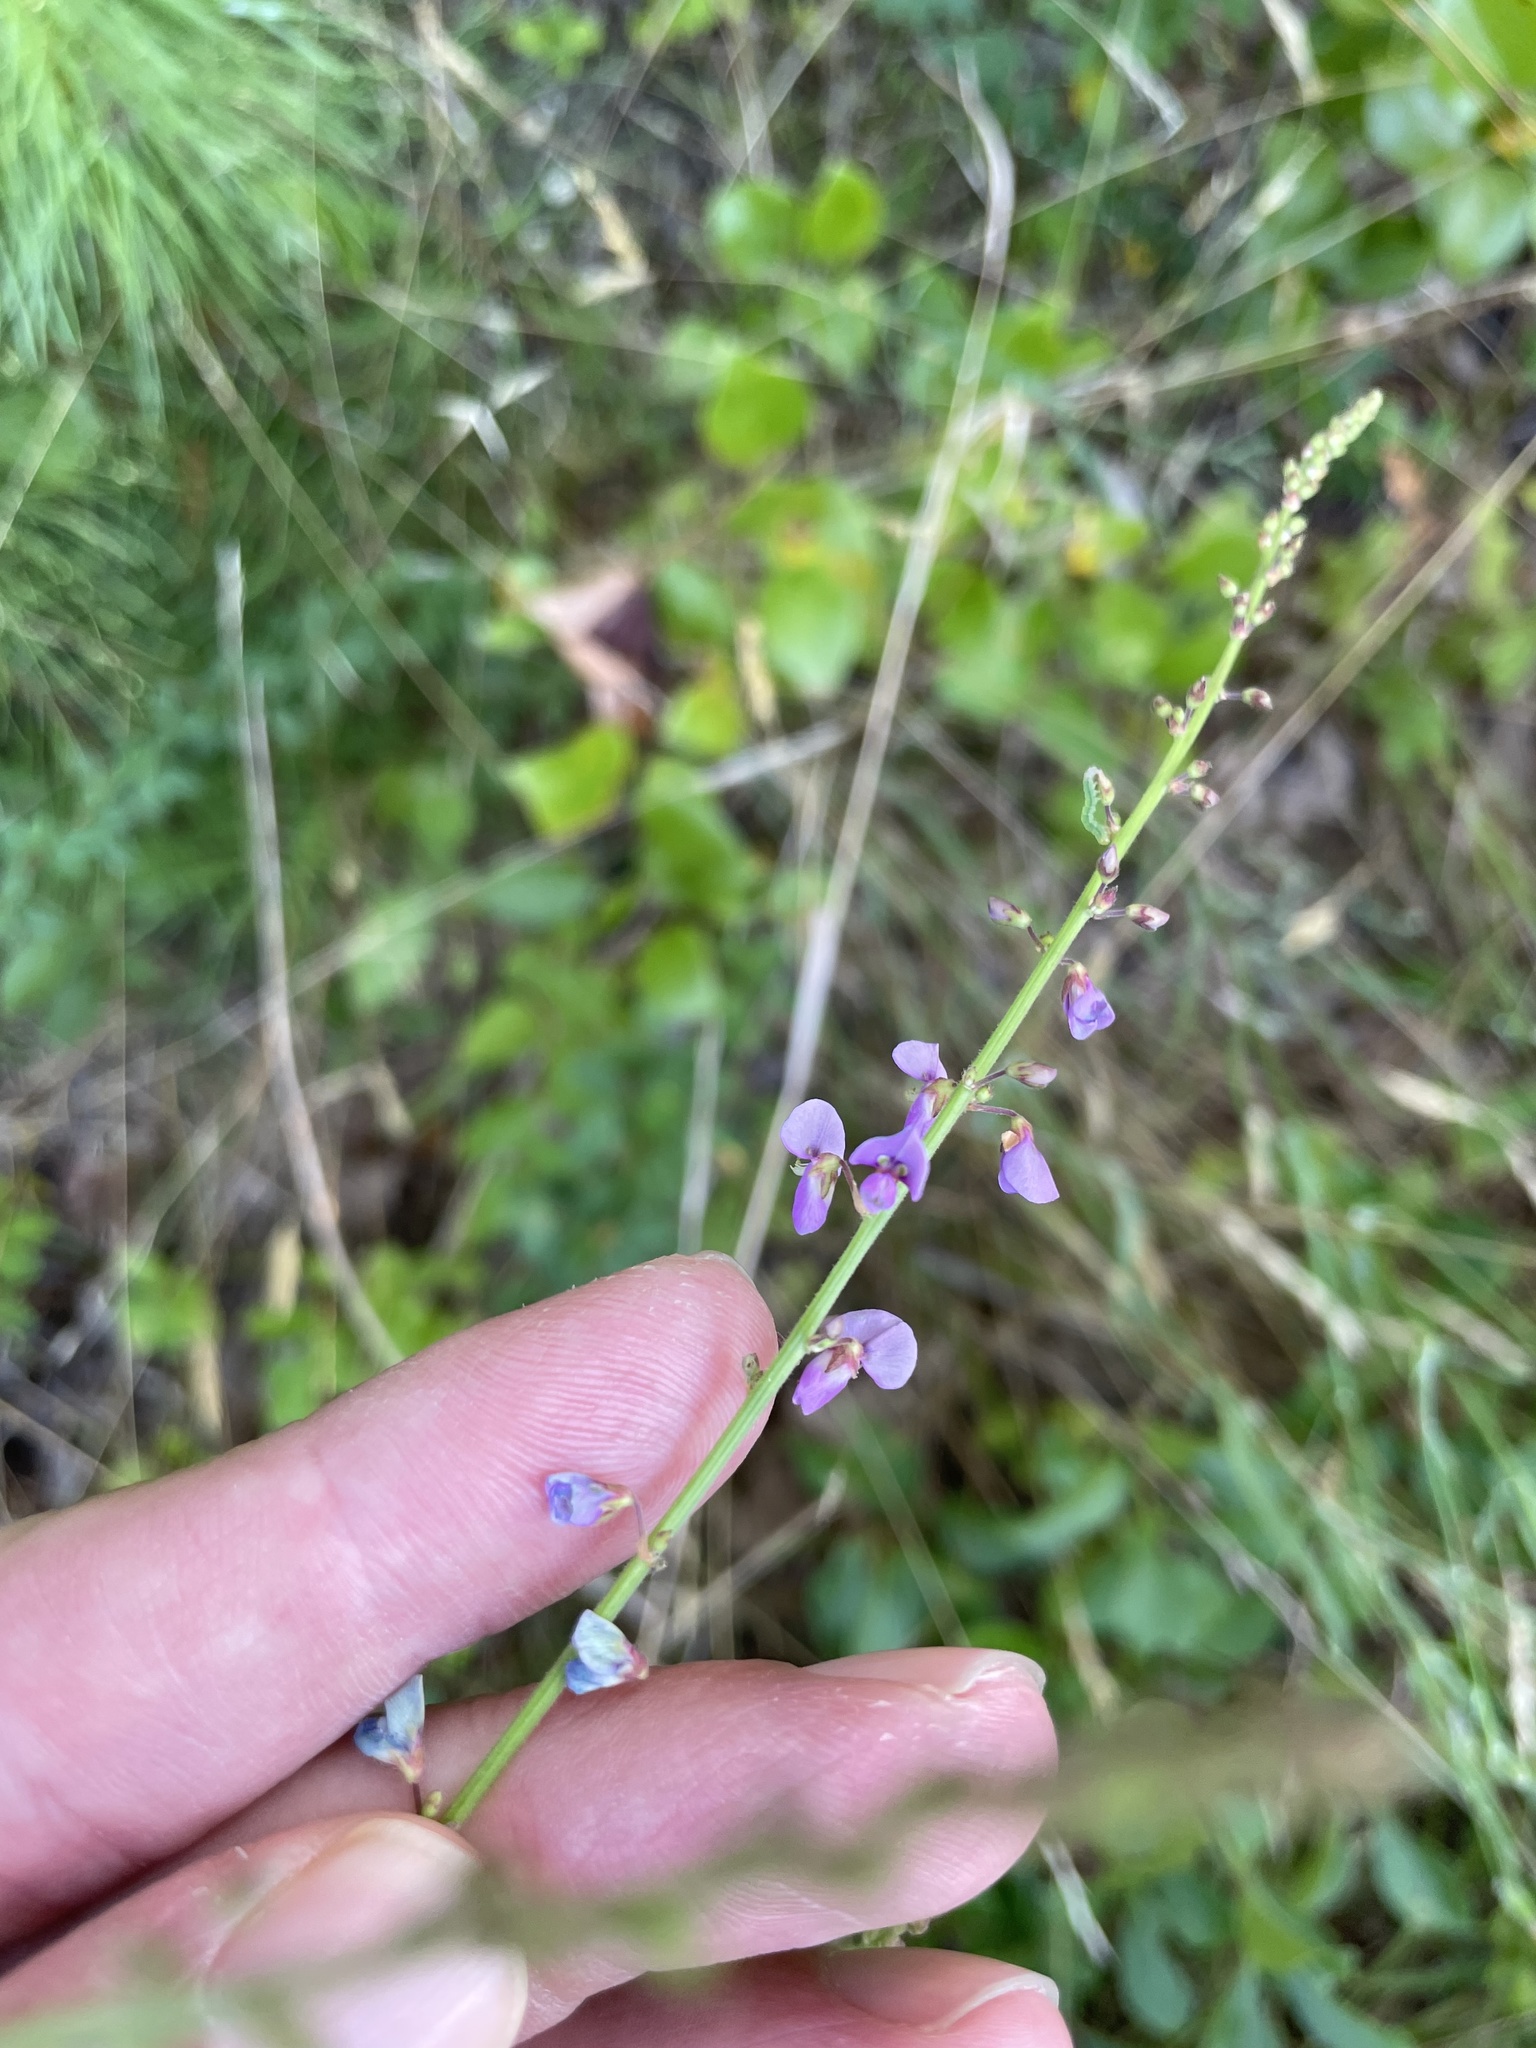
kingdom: Plantae
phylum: Tracheophyta
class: Magnoliopsida
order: Fabales
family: Fabaceae
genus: Desmodium
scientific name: Desmodium ciliare
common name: Hairy small-leaf ticktrefoil
